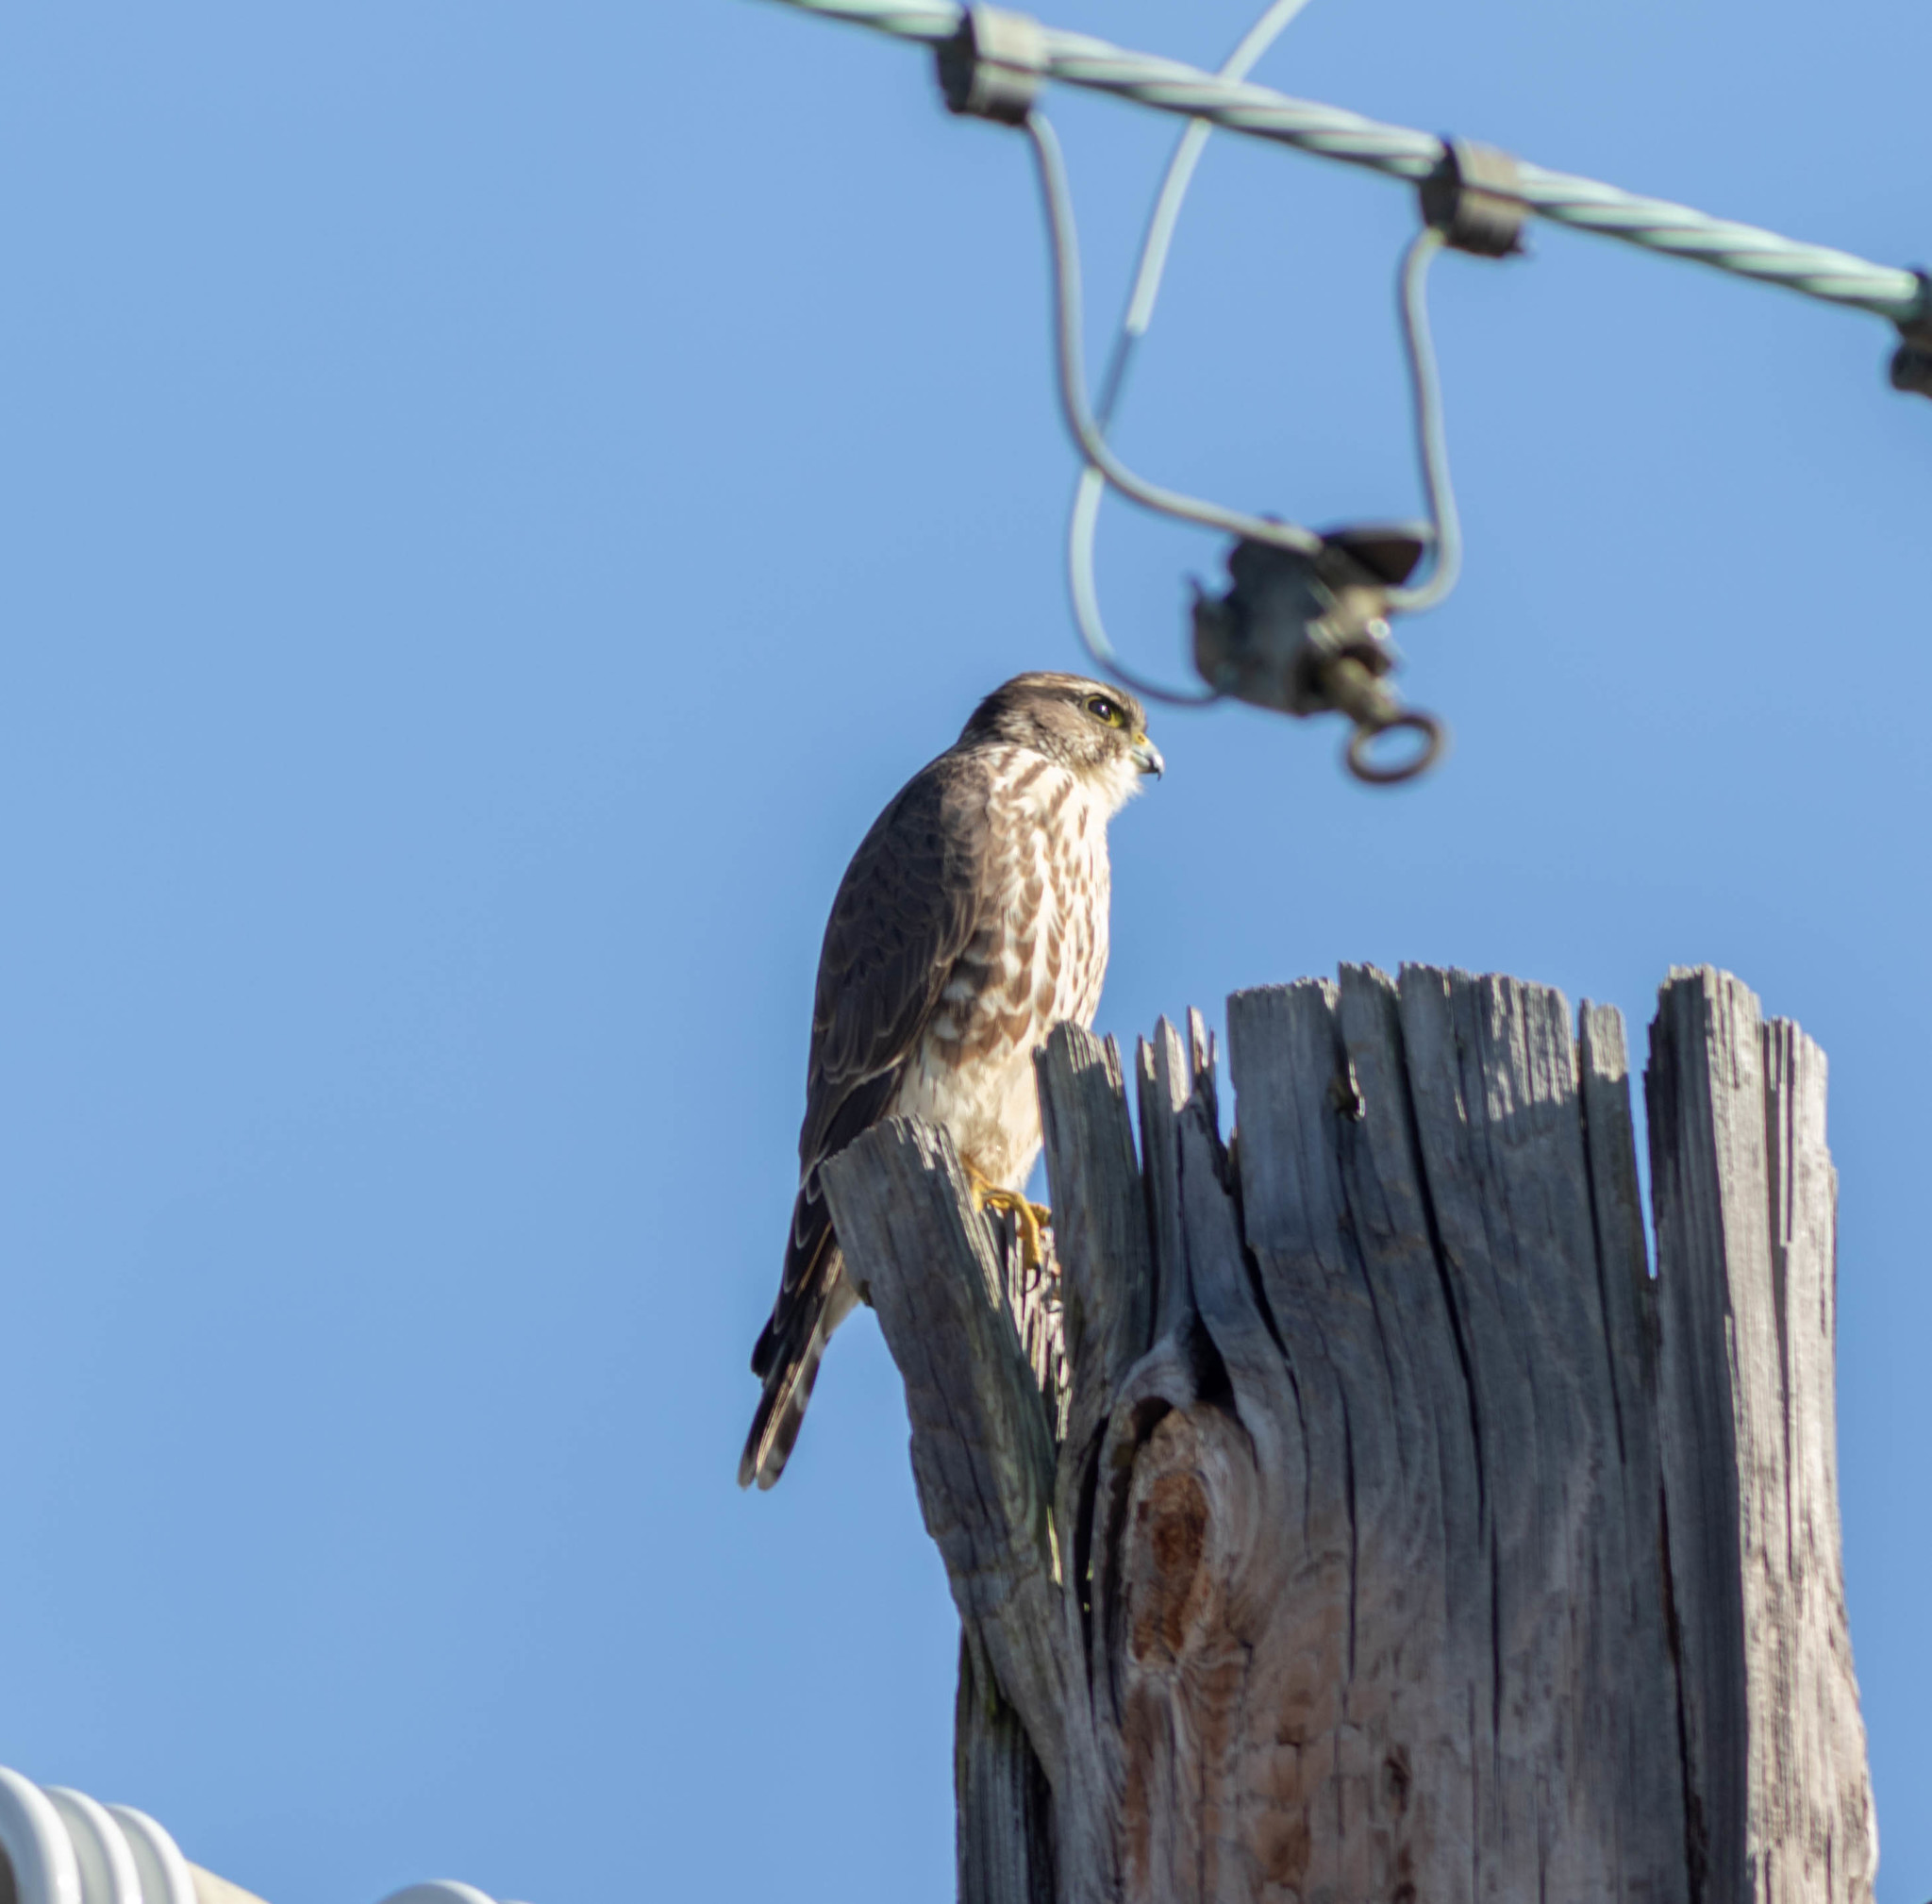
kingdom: Animalia
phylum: Chordata
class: Aves
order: Falconiformes
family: Falconidae
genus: Falco
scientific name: Falco columbarius
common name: Merlin
